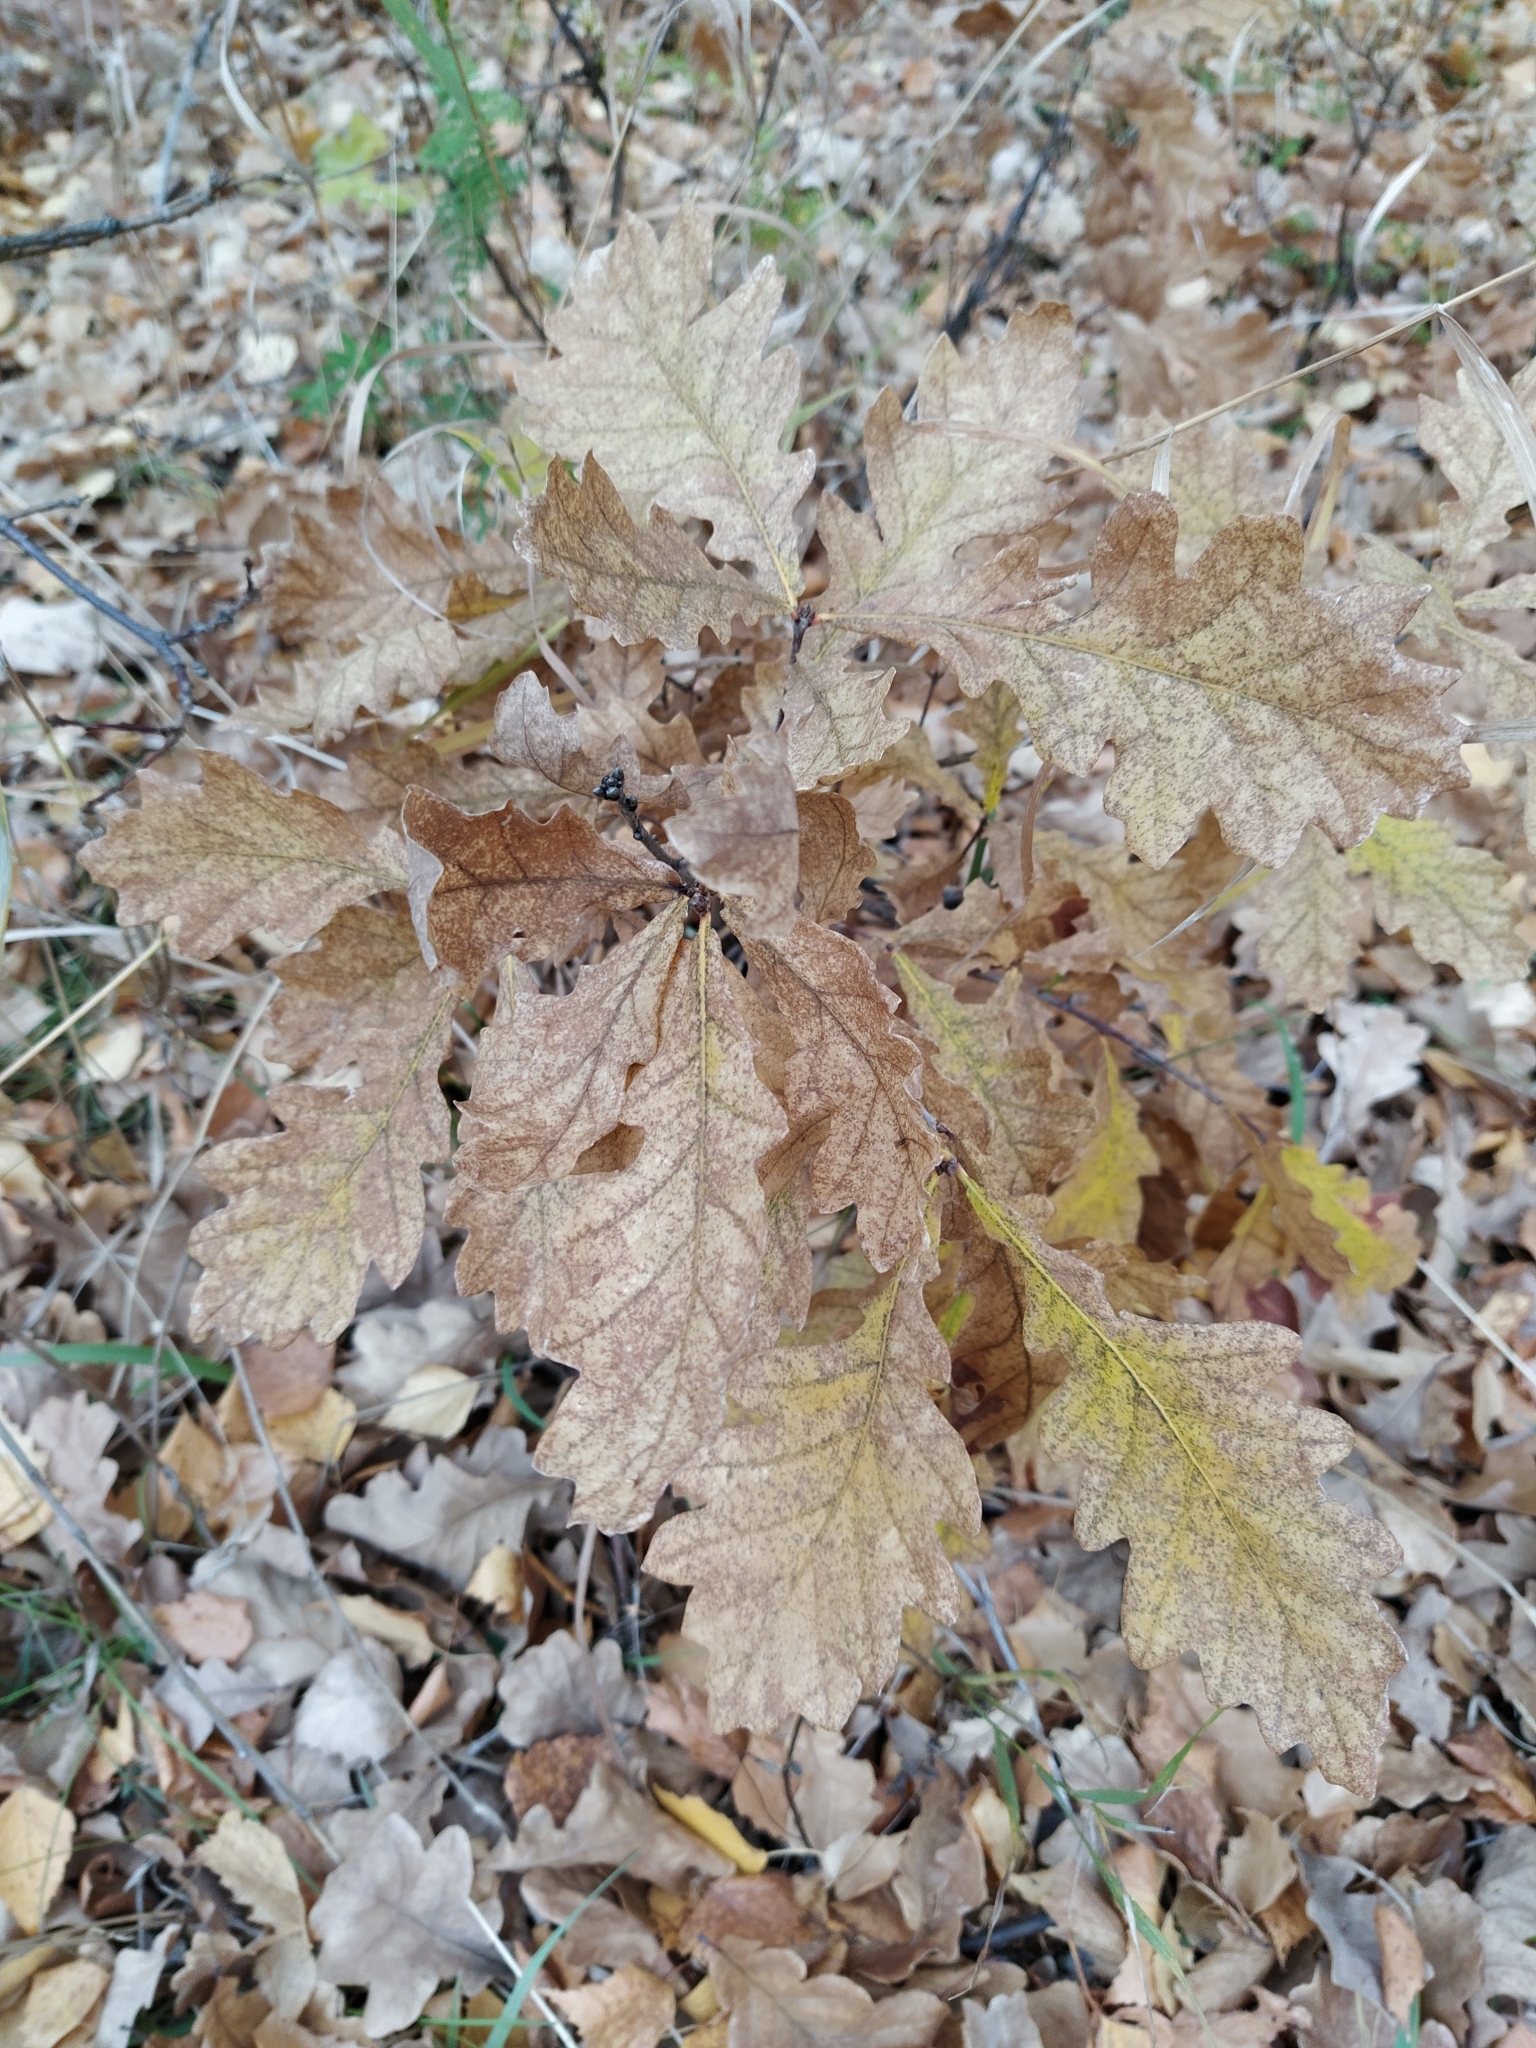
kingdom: Plantae
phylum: Tracheophyta
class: Magnoliopsida
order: Fagales
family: Fagaceae
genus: Quercus
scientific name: Quercus robur
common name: Pedunculate oak
